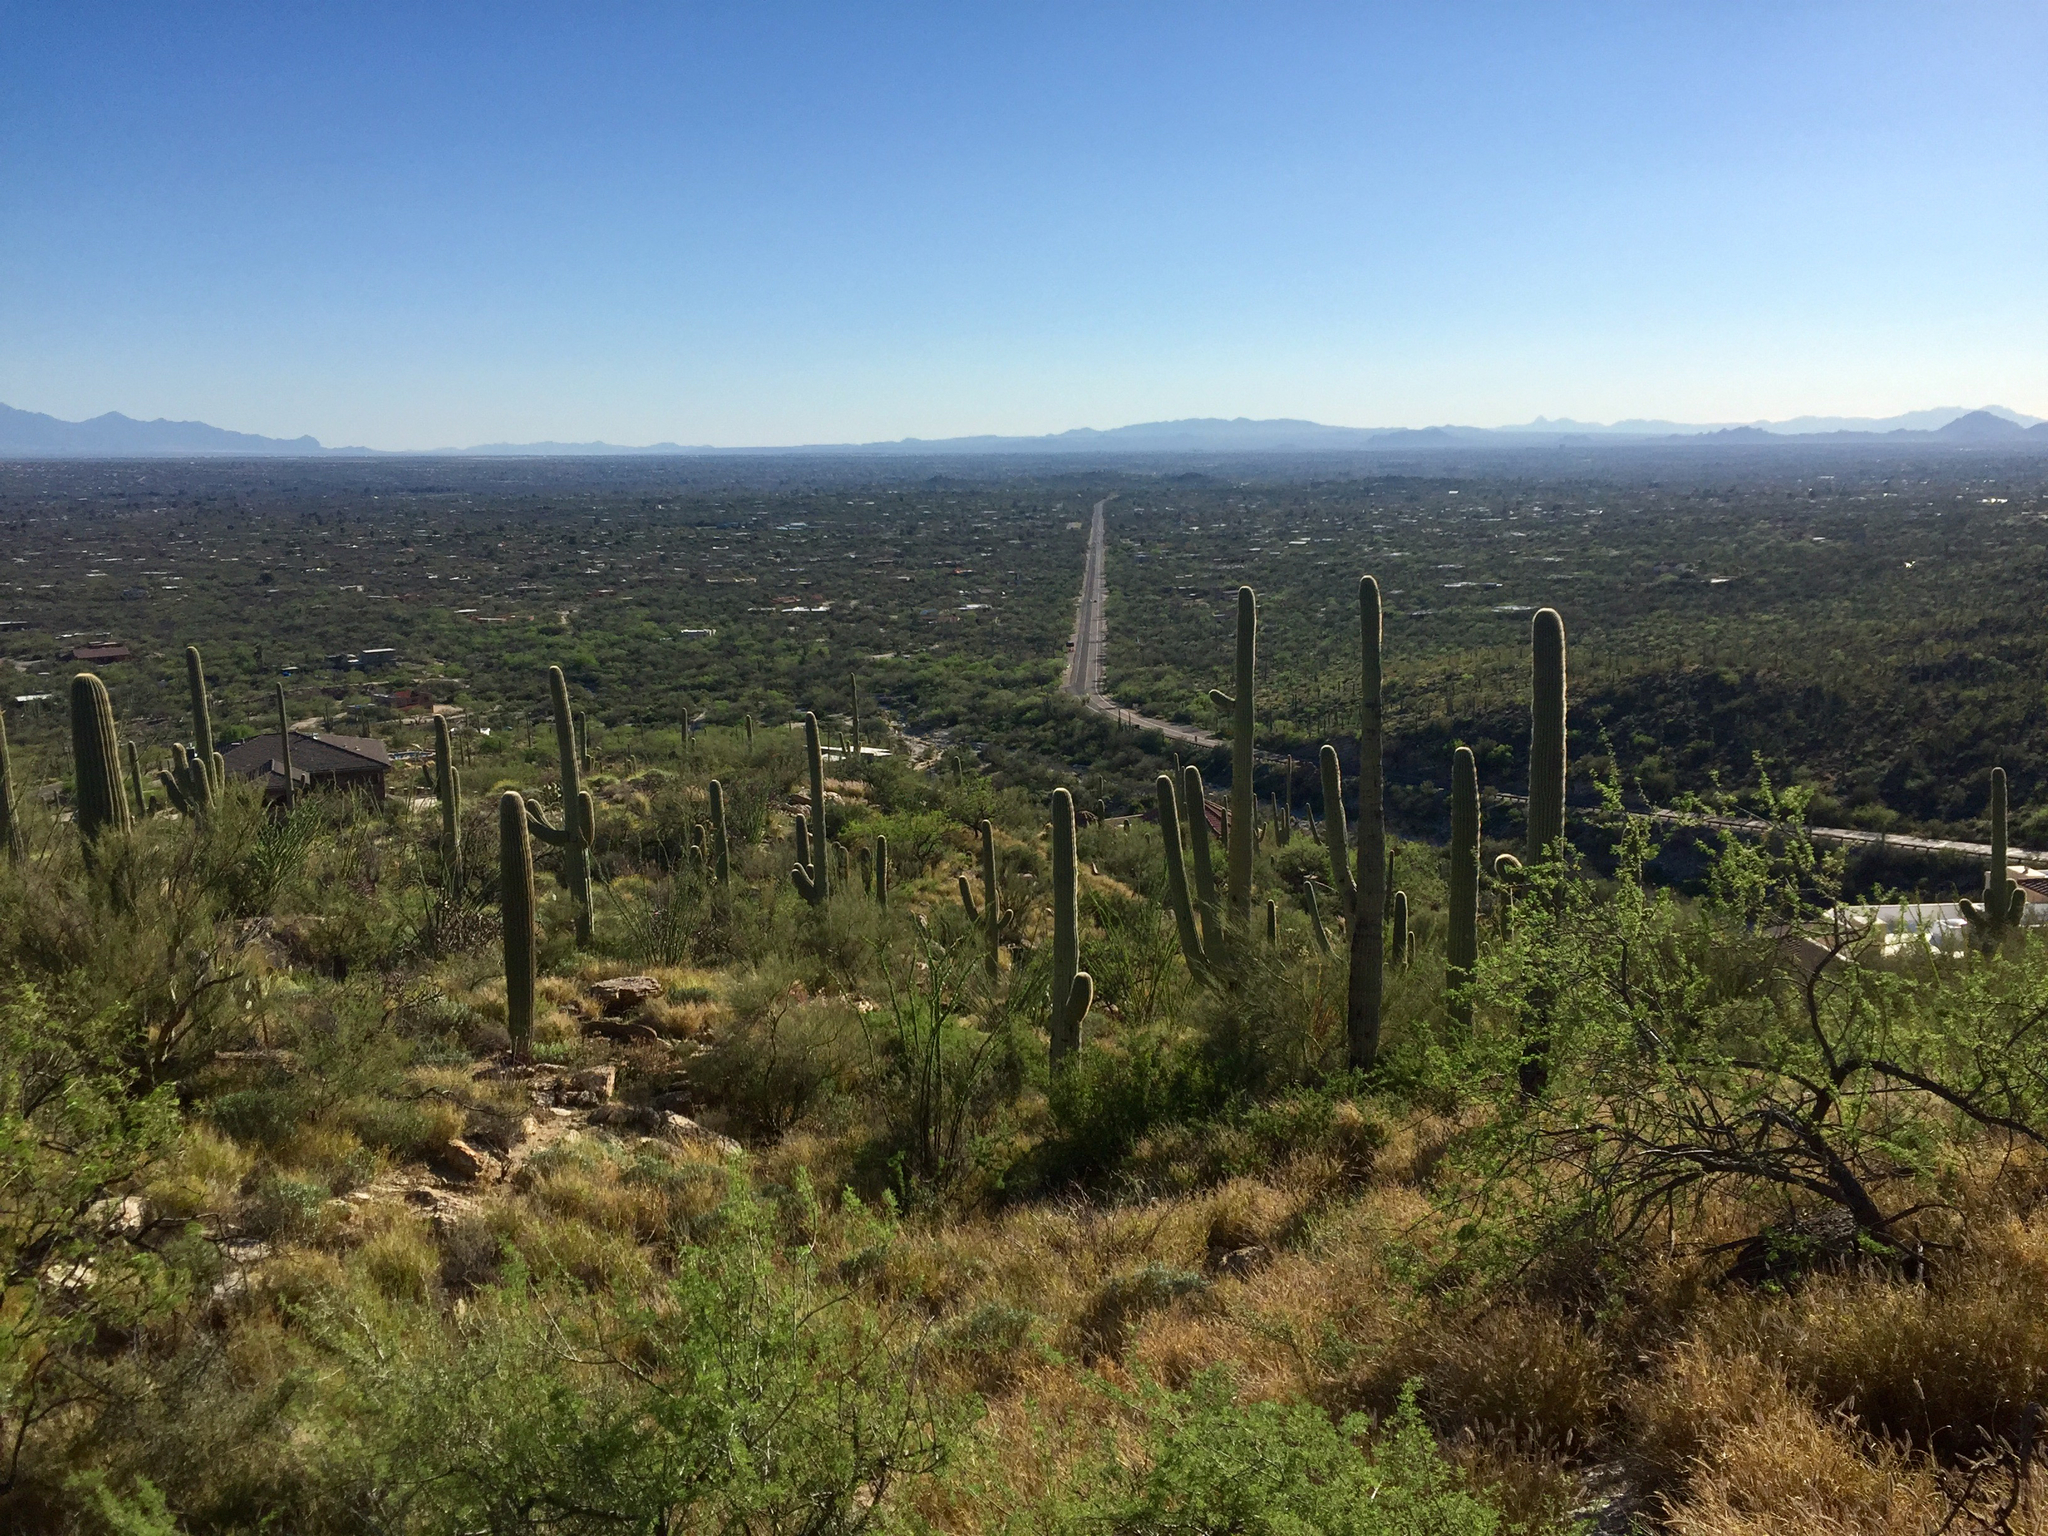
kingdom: Plantae
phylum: Tracheophyta
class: Magnoliopsida
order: Caryophyllales
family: Cactaceae
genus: Carnegiea
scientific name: Carnegiea gigantea
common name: Saguaro
